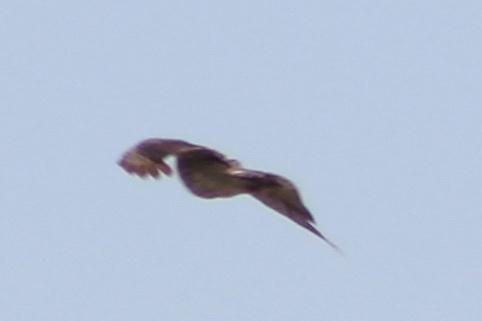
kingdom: Animalia
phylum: Chordata
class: Aves
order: Accipitriformes
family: Accipitridae
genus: Buteo
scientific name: Buteo lineatus
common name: Red-shouldered hawk
